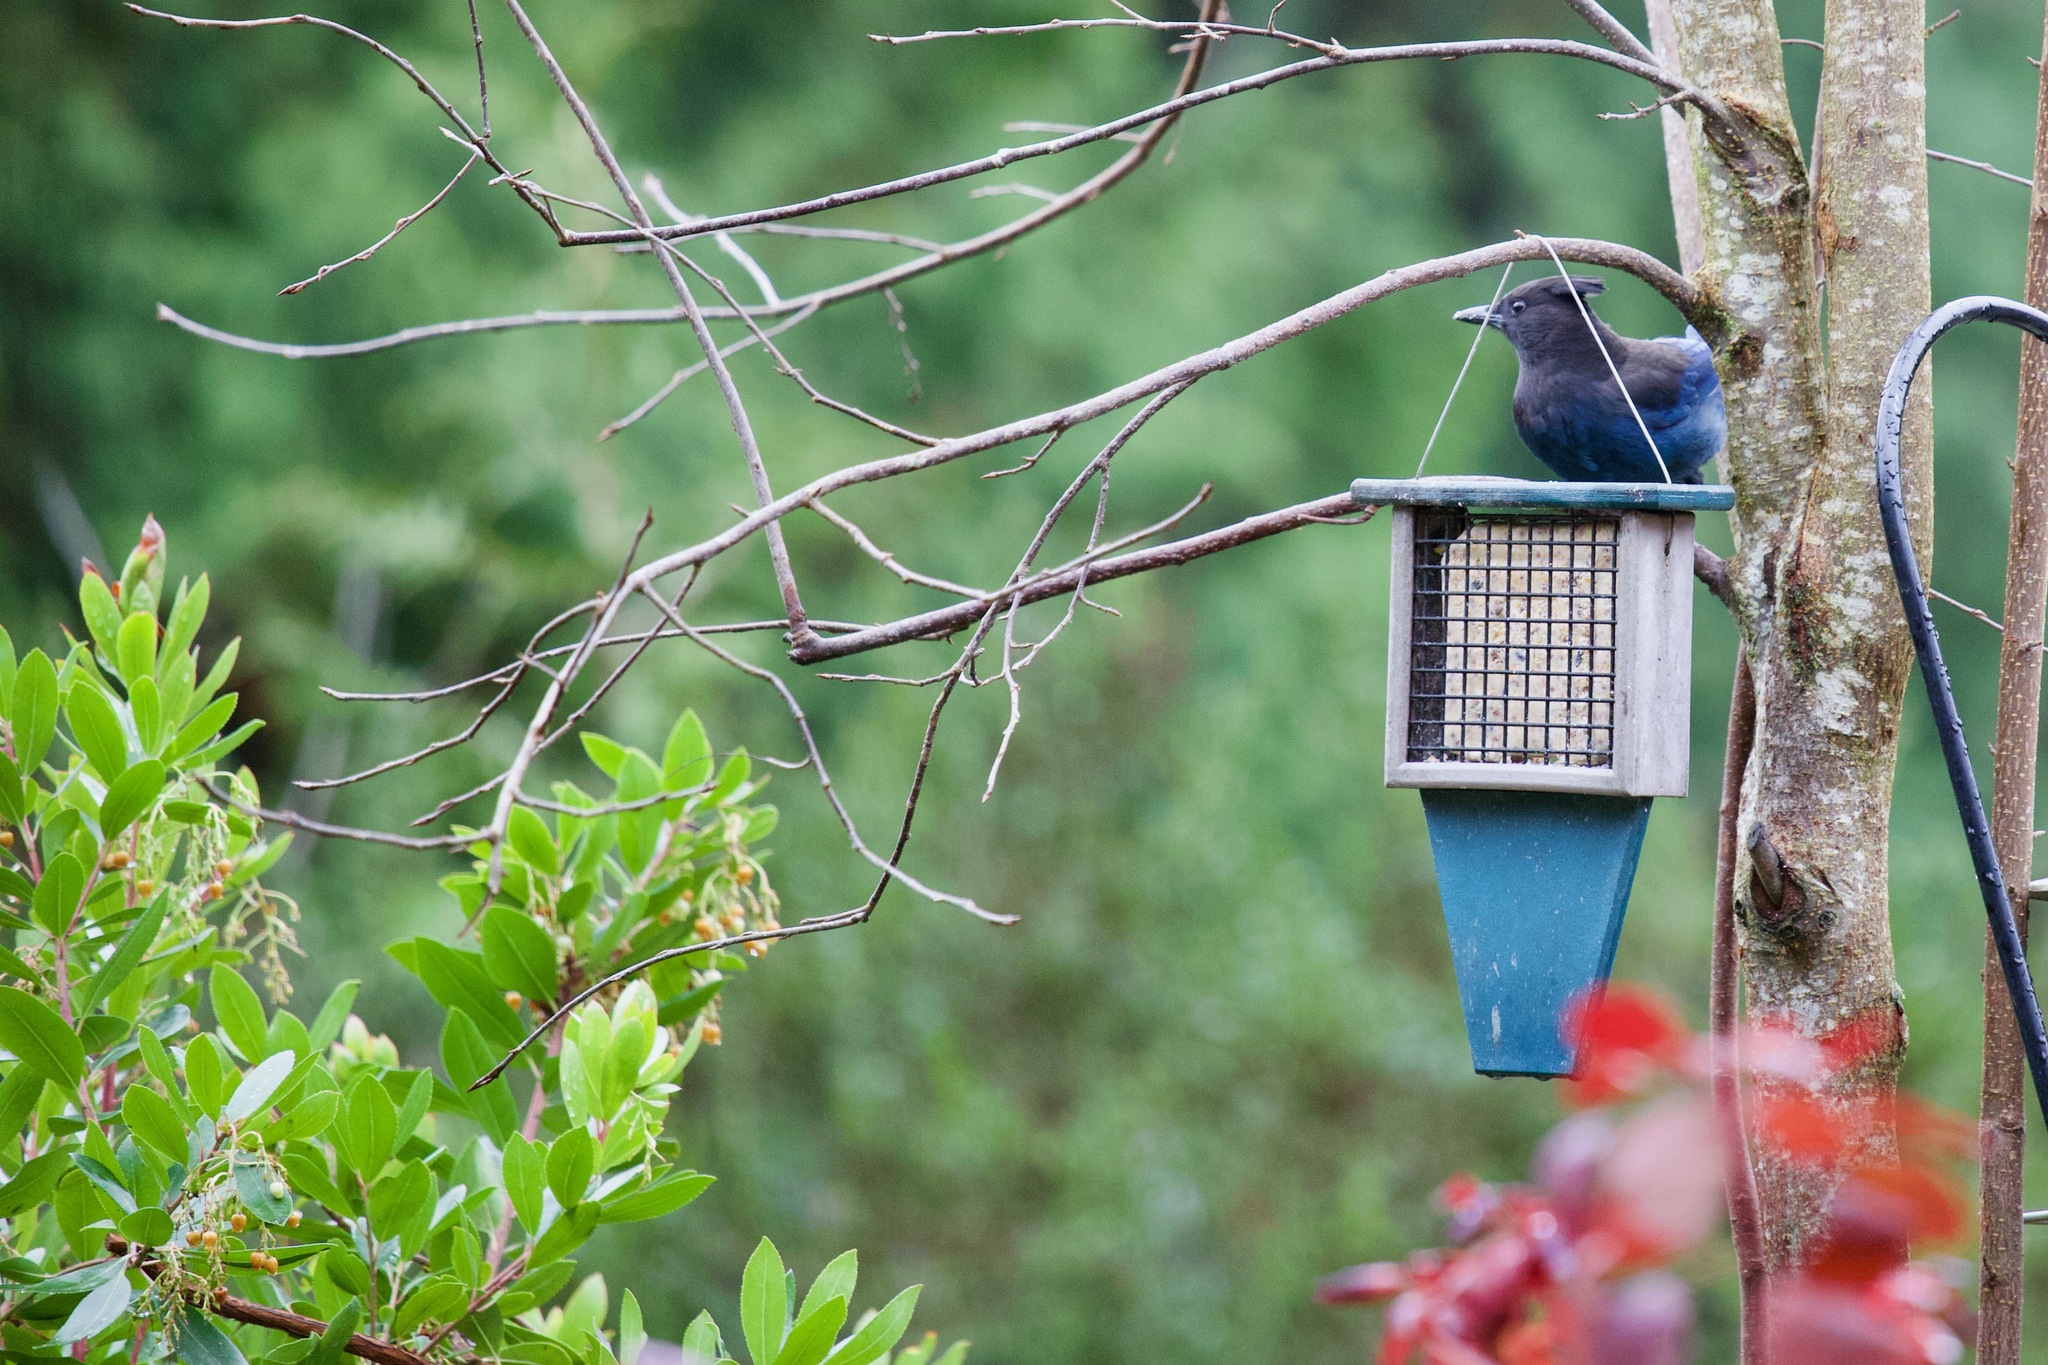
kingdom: Animalia
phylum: Chordata
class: Aves
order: Passeriformes
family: Corvidae
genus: Cyanocitta
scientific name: Cyanocitta stelleri
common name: Steller's jay
